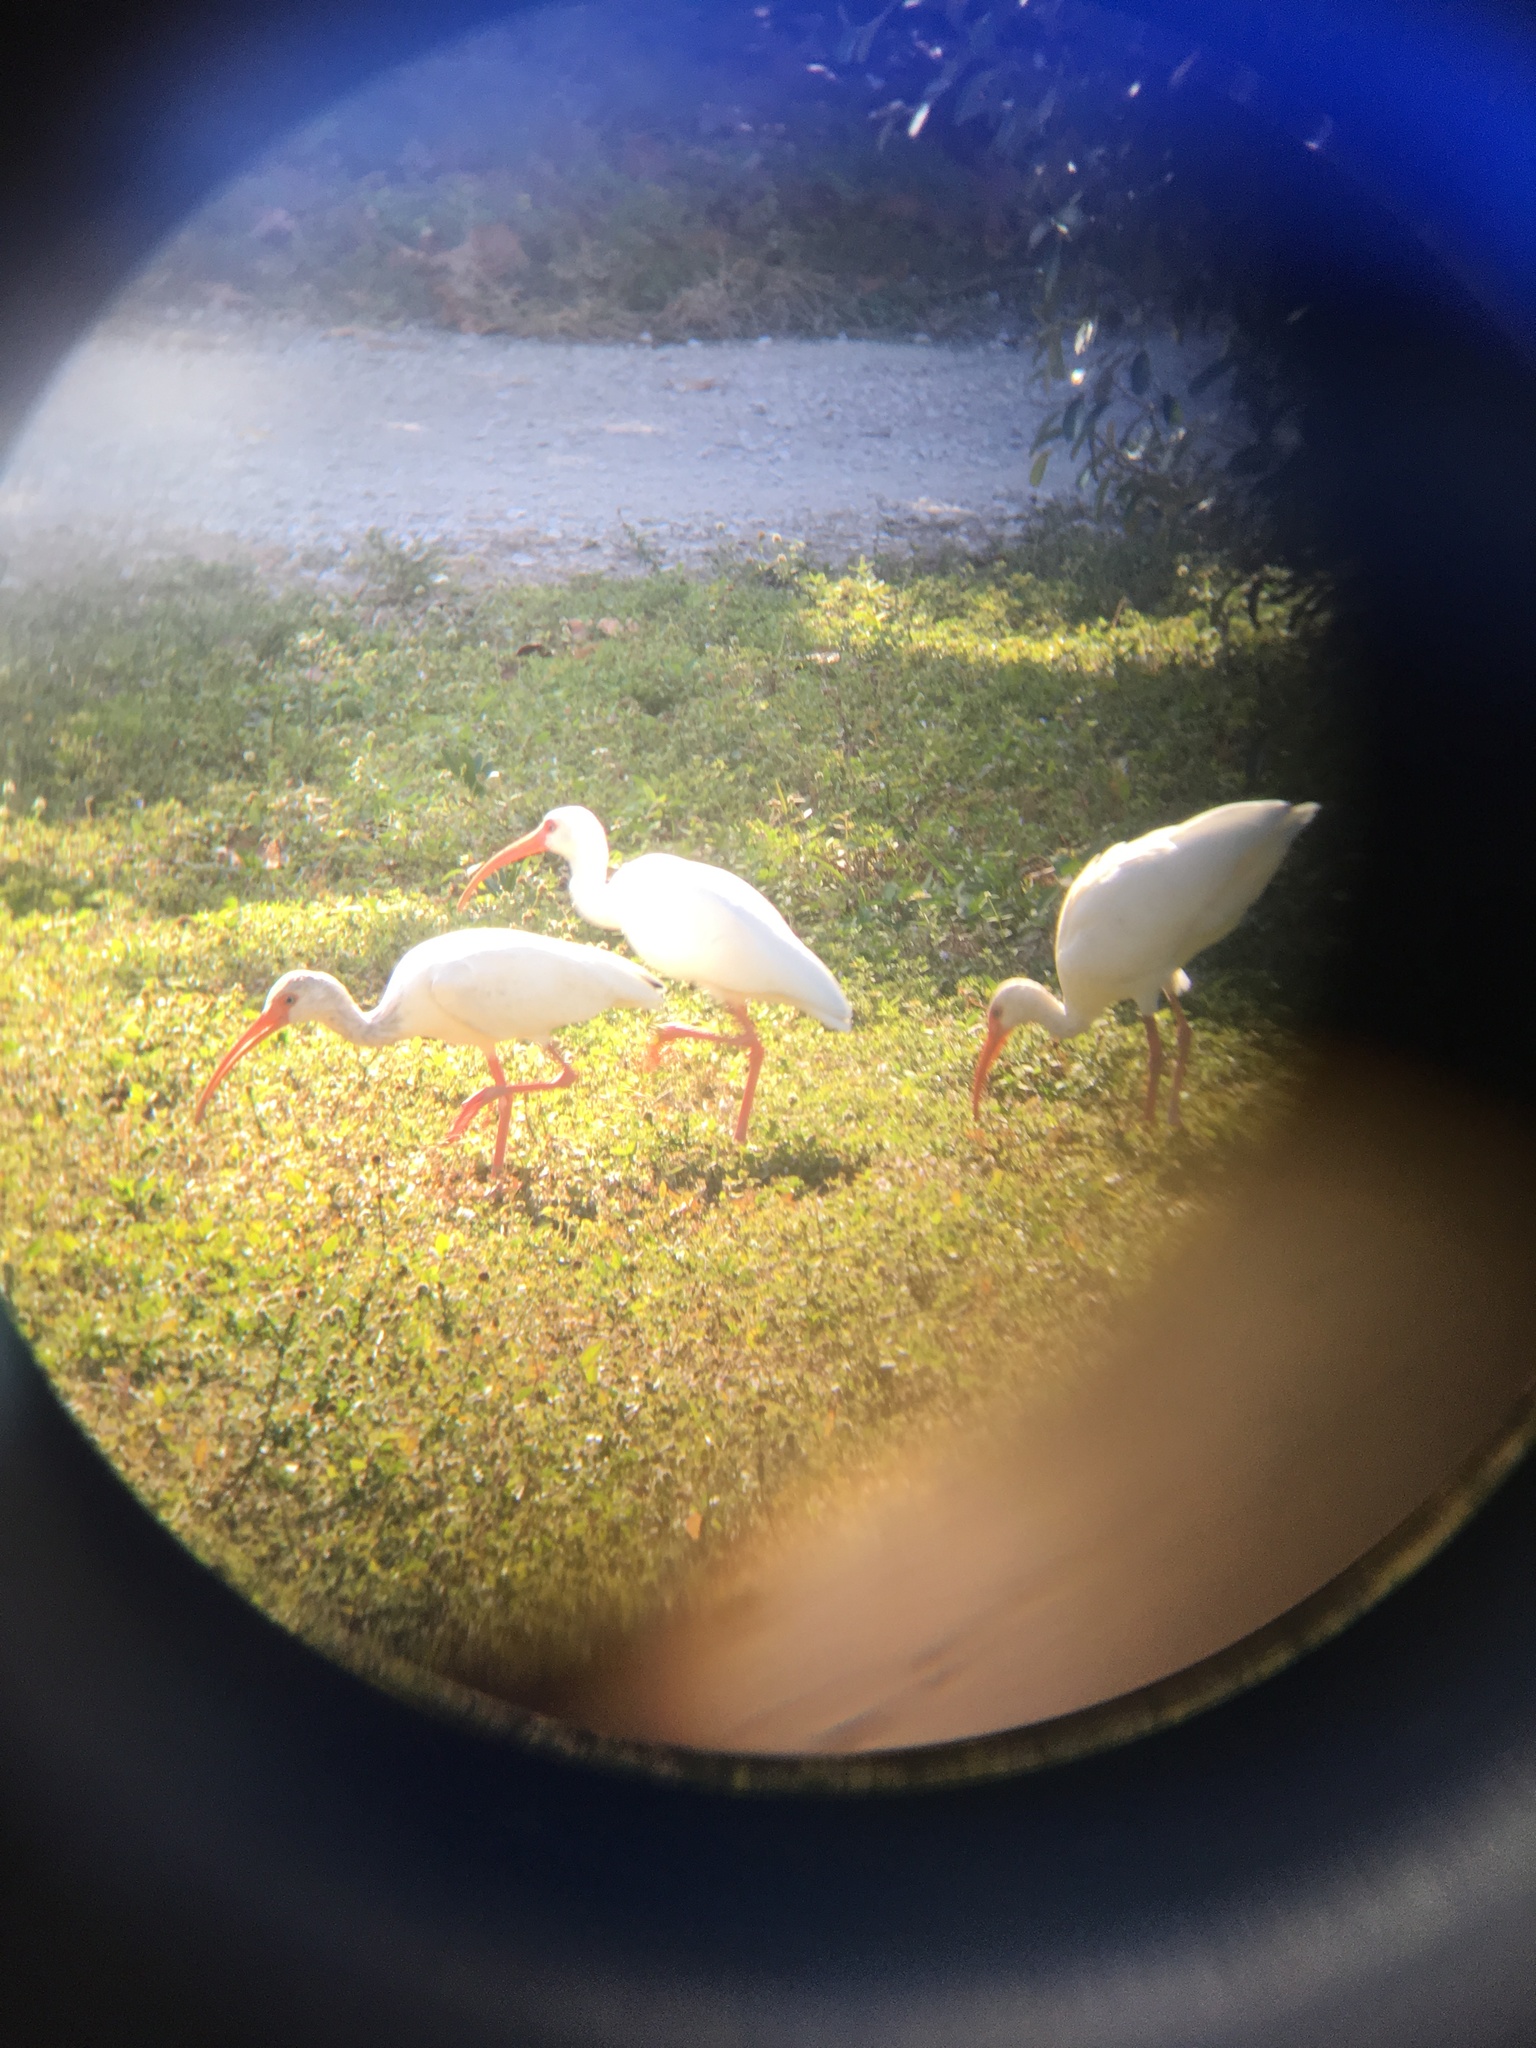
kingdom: Animalia
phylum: Chordata
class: Aves
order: Pelecaniformes
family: Threskiornithidae
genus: Eudocimus
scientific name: Eudocimus albus
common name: White ibis
